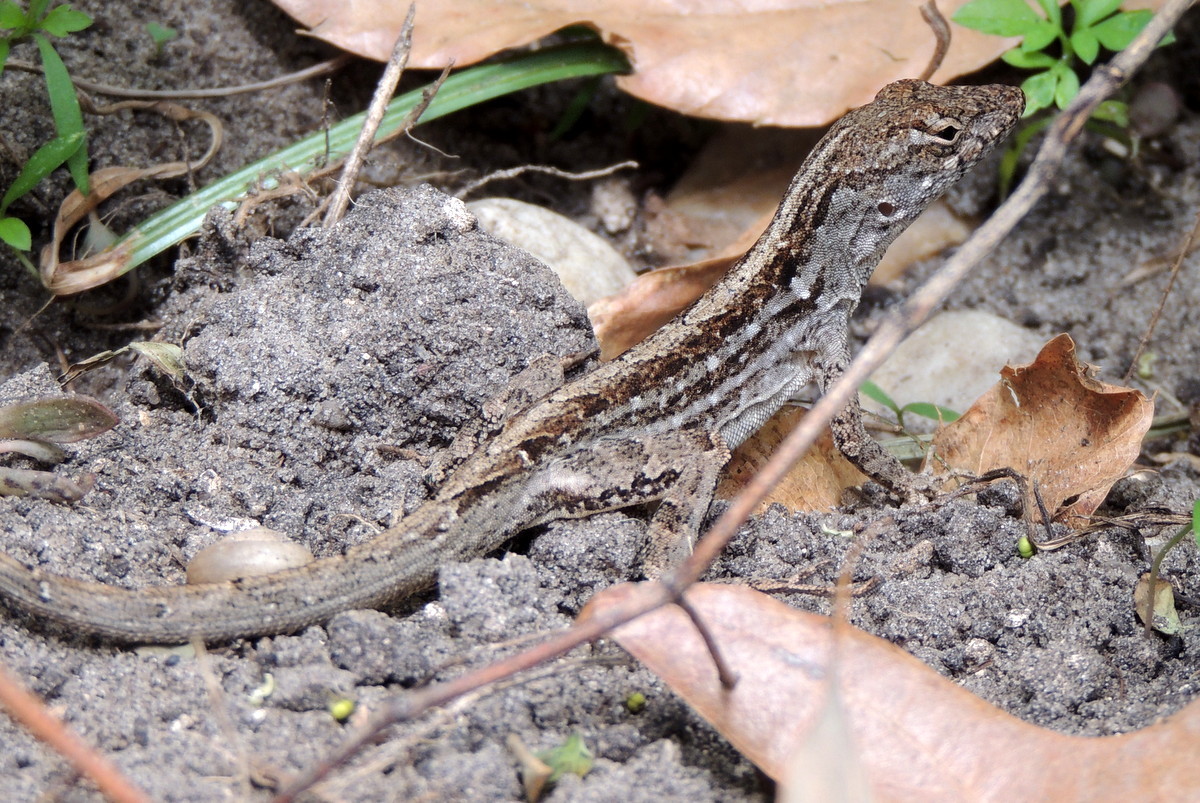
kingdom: Animalia
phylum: Chordata
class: Squamata
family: Dactyloidae
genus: Anolis
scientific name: Anolis sagrei
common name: Brown anole
